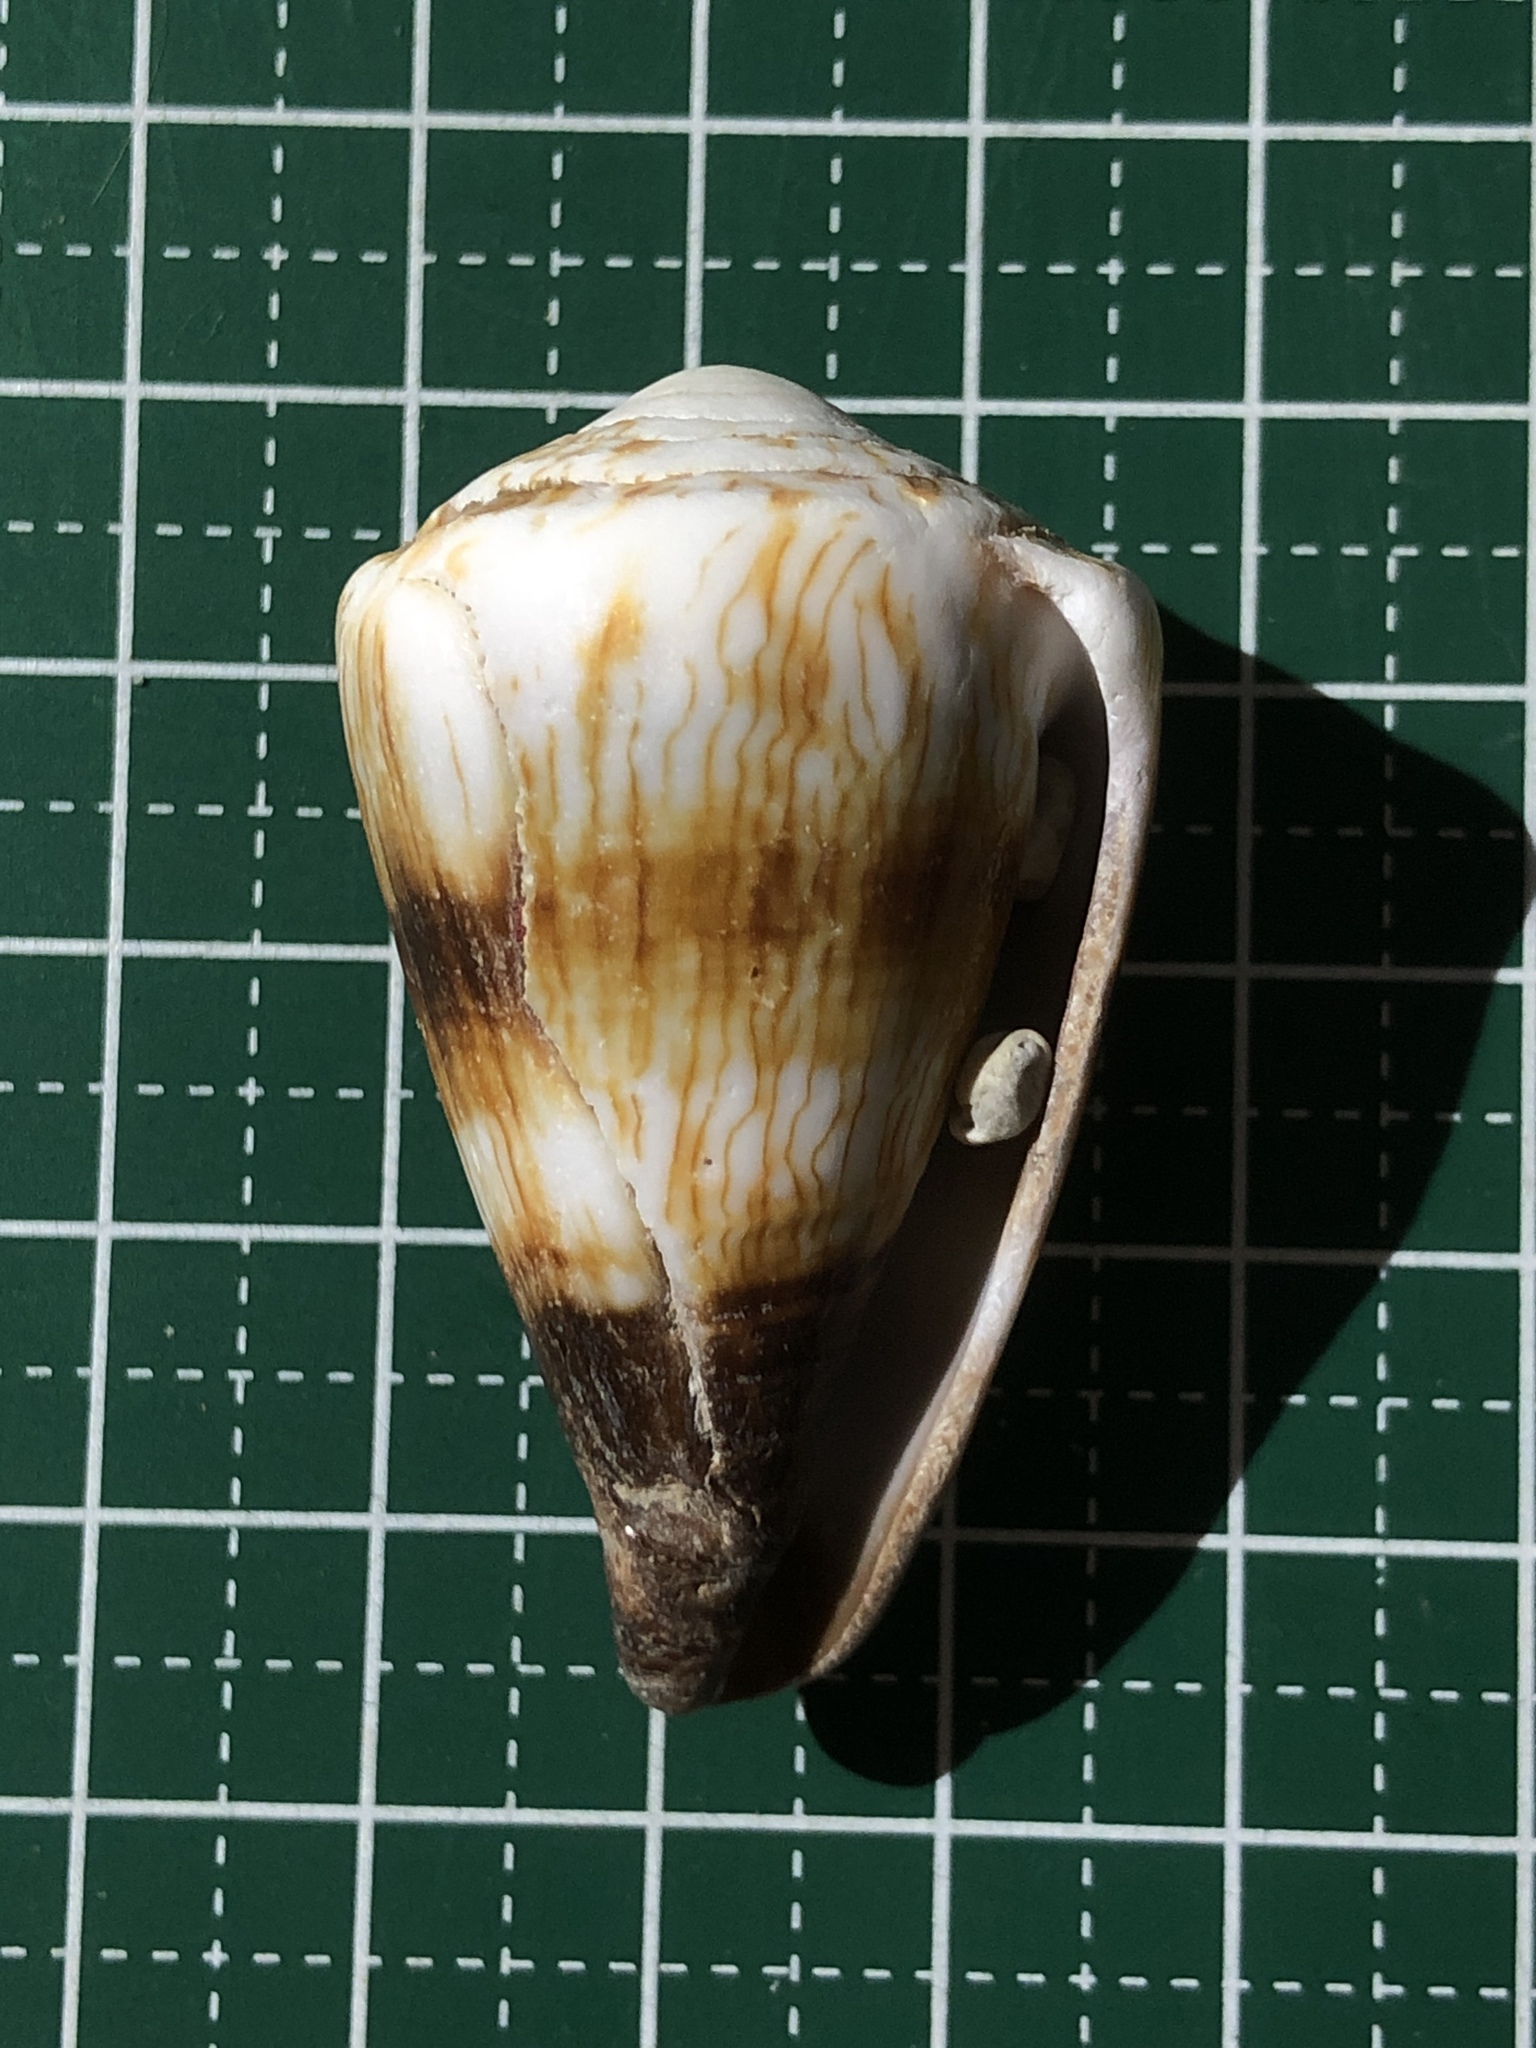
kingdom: Animalia
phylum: Mollusca
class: Gastropoda
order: Neogastropoda
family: Conidae
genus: Conus
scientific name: Conus miles
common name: Soldier cone
